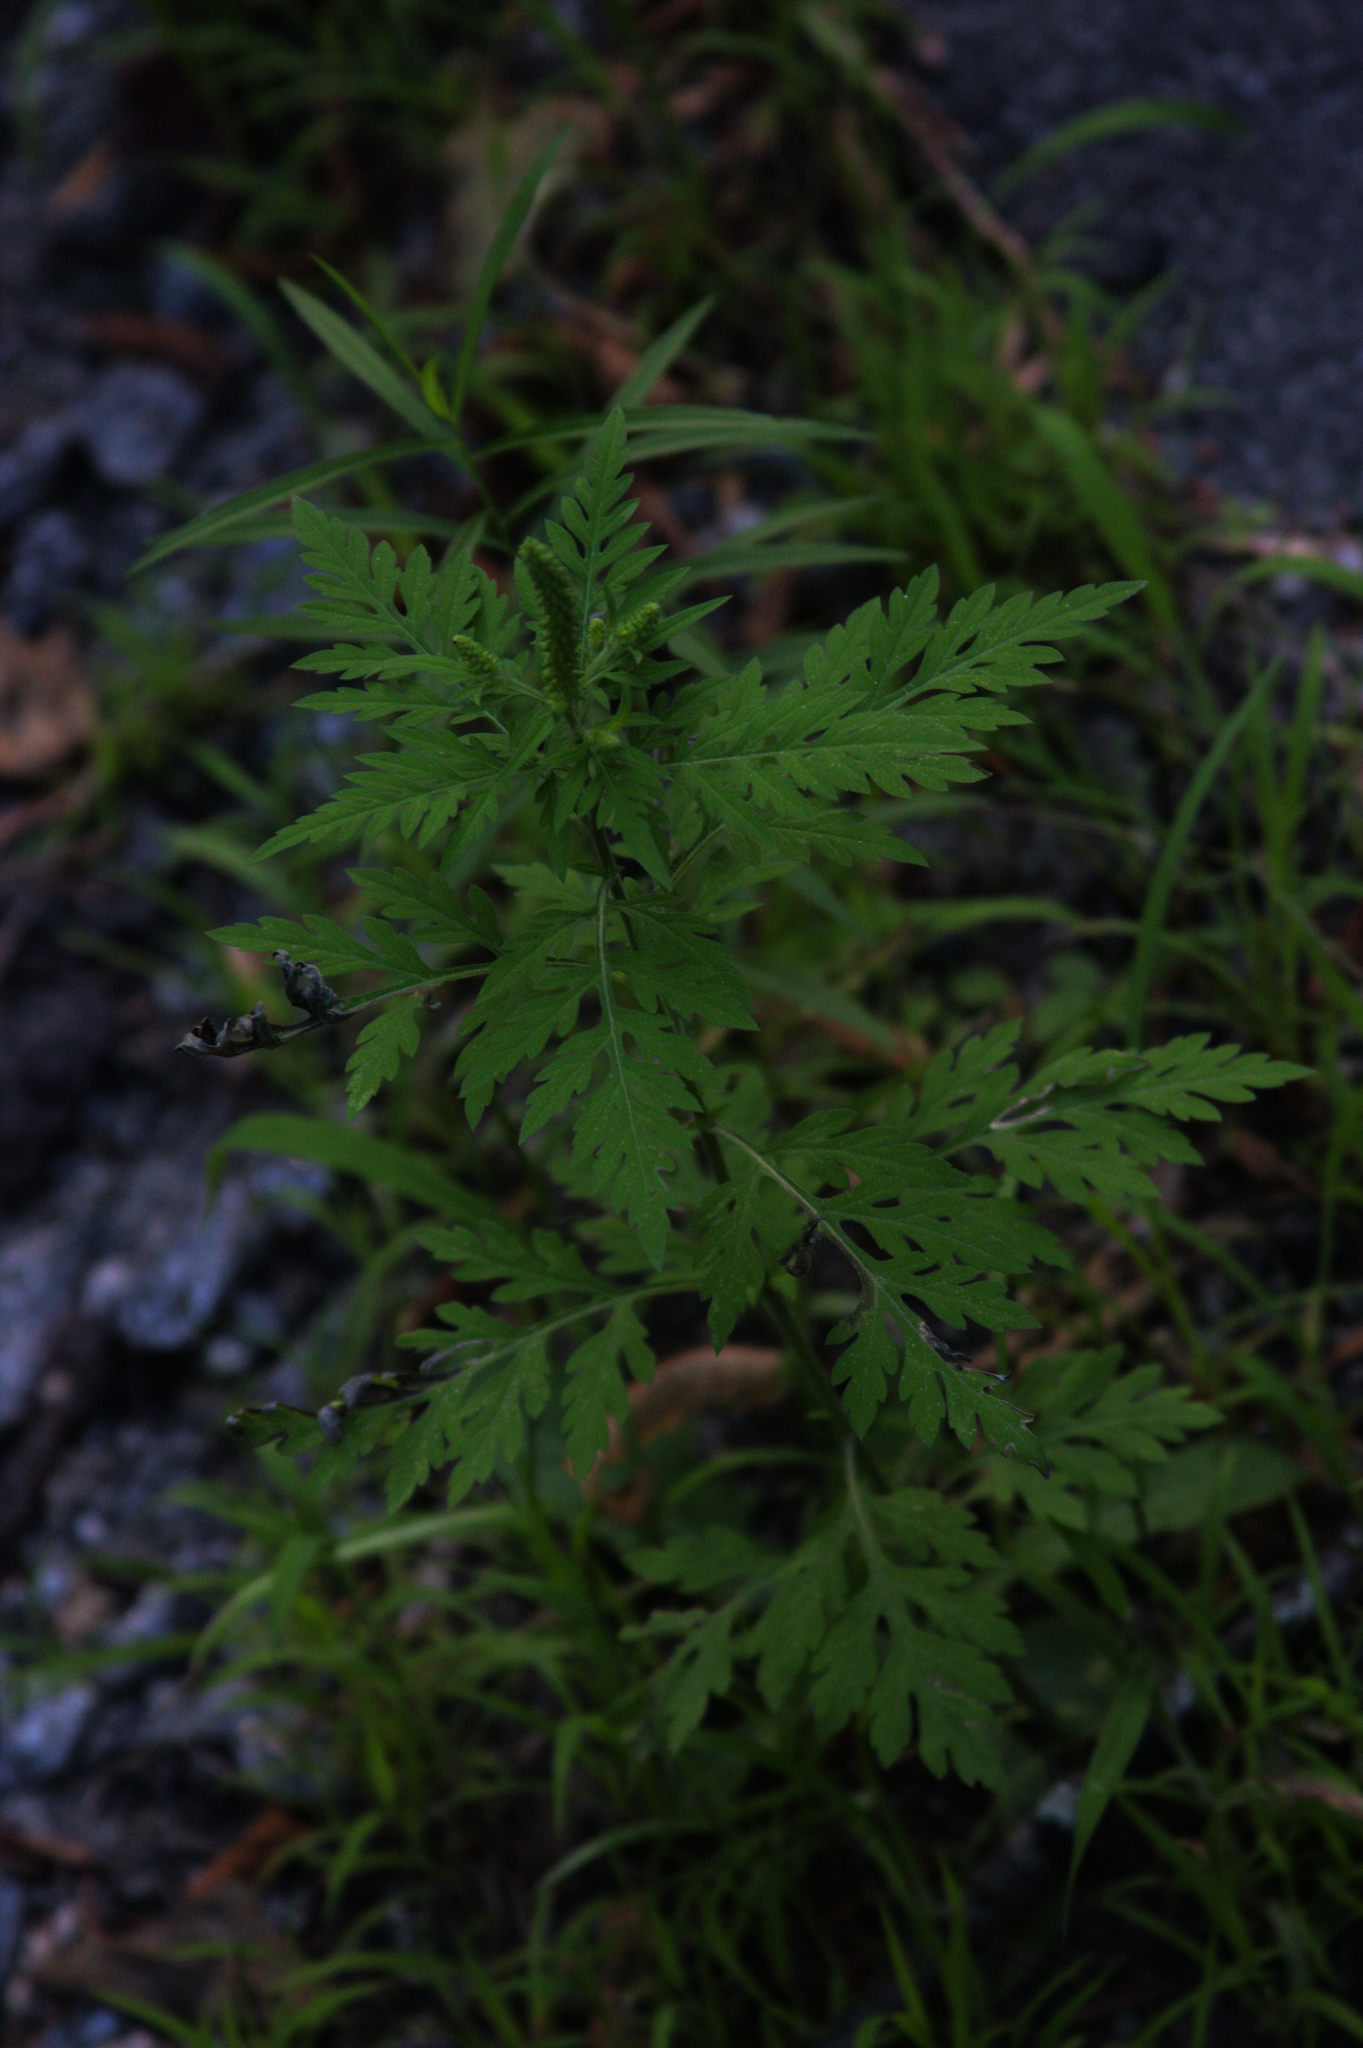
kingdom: Plantae
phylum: Tracheophyta
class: Magnoliopsida
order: Asterales
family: Asteraceae
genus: Ambrosia
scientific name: Ambrosia artemisiifolia
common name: Annual ragweed
